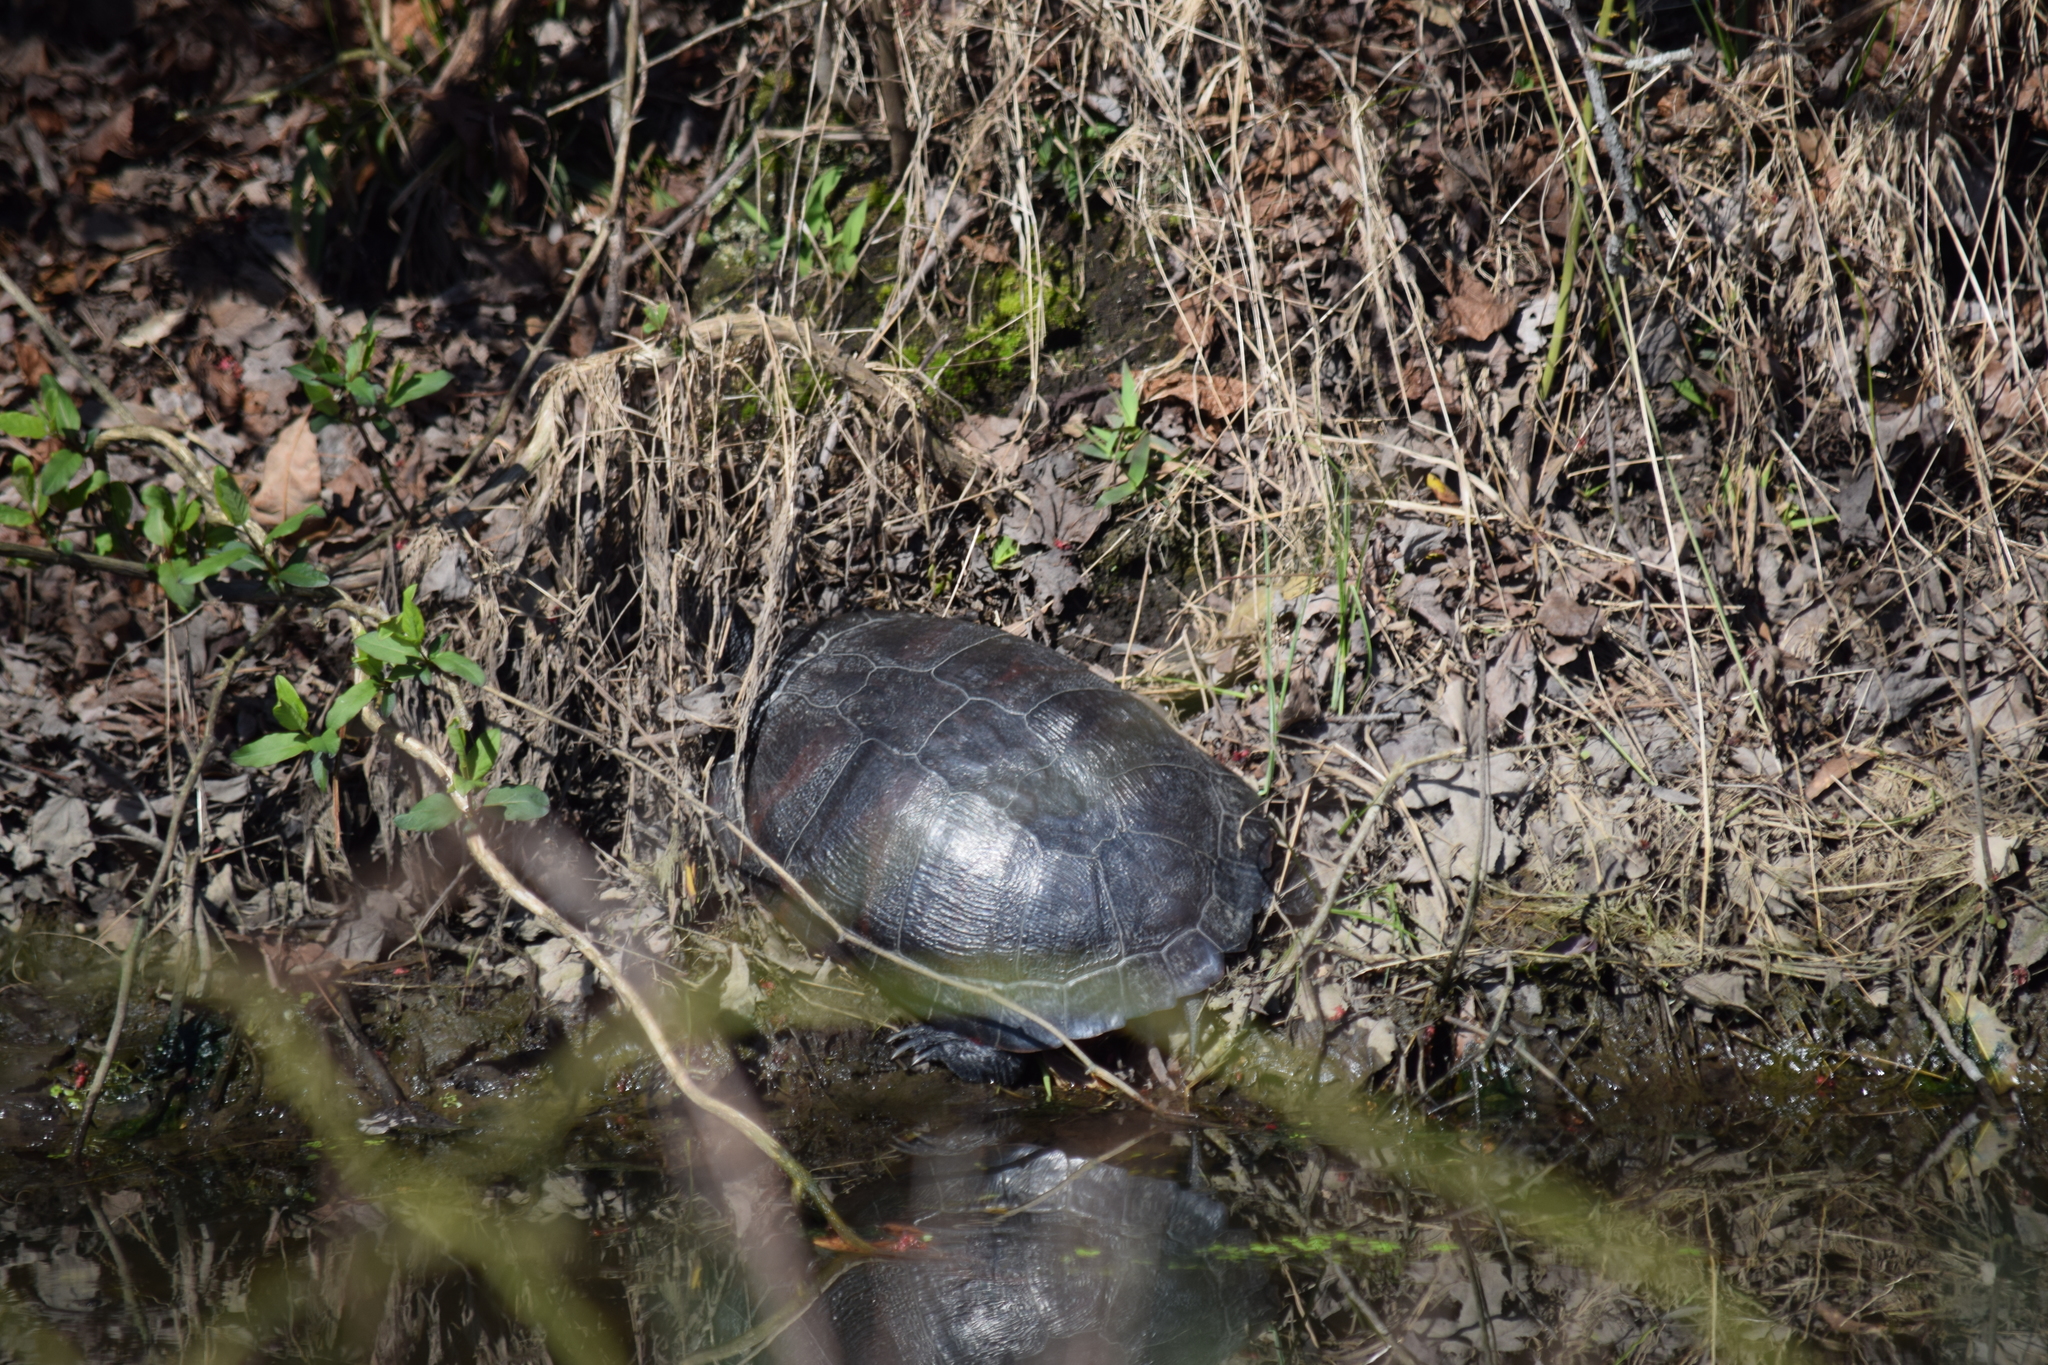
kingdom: Animalia
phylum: Chordata
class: Testudines
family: Emydidae
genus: Pseudemys
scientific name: Pseudemys rubriventris
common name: American red-bellied turtle
